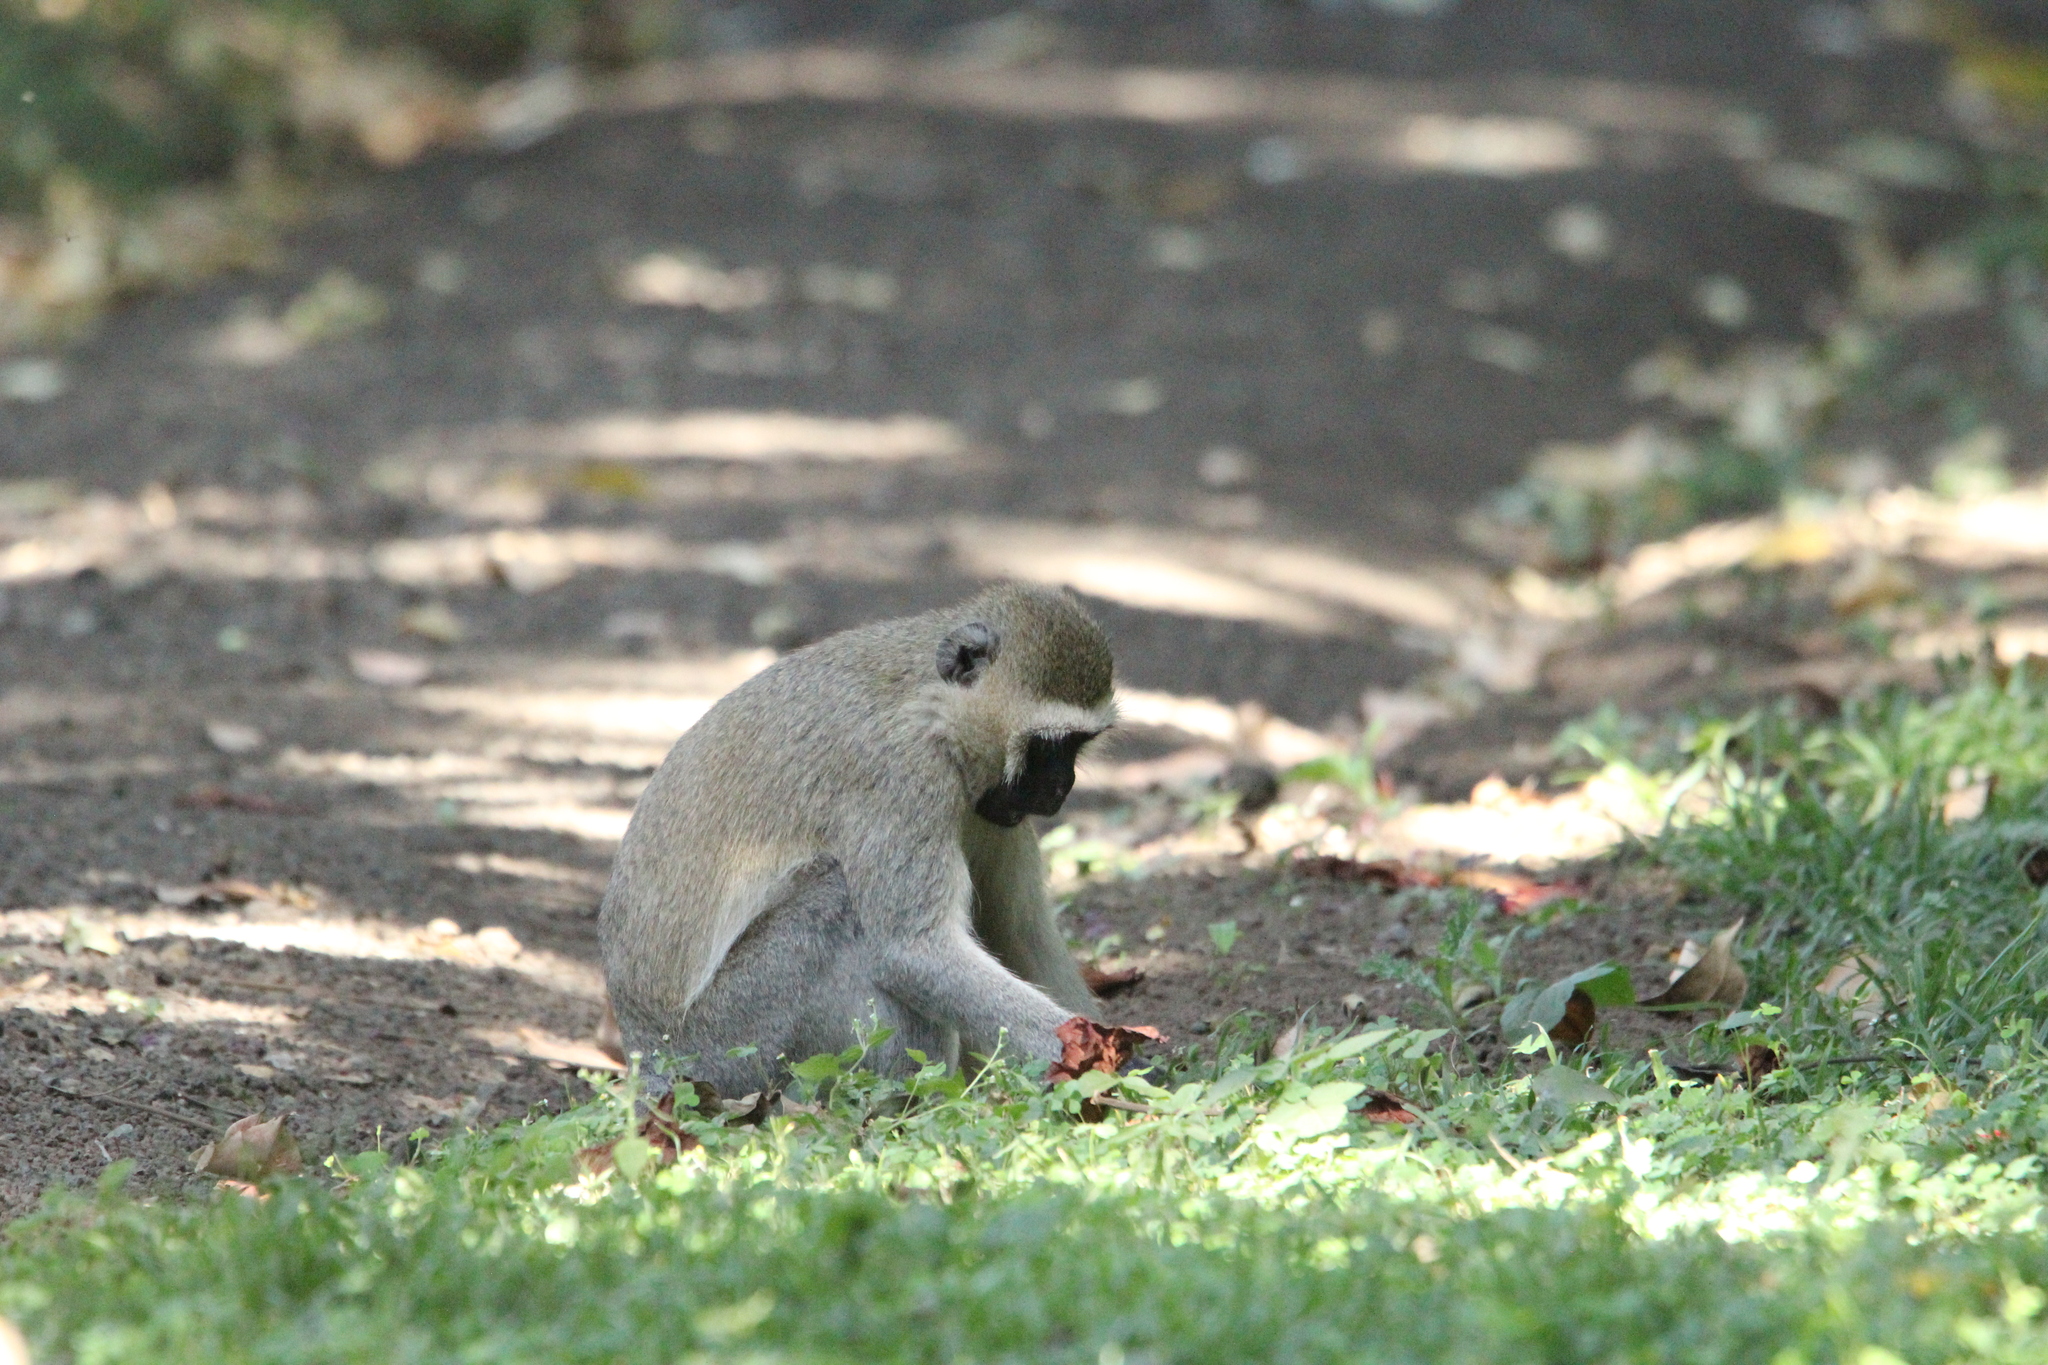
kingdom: Animalia
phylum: Chordata
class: Mammalia
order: Primates
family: Cercopithecidae
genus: Chlorocebus
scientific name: Chlorocebus pygerythrus
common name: Vervet monkey
